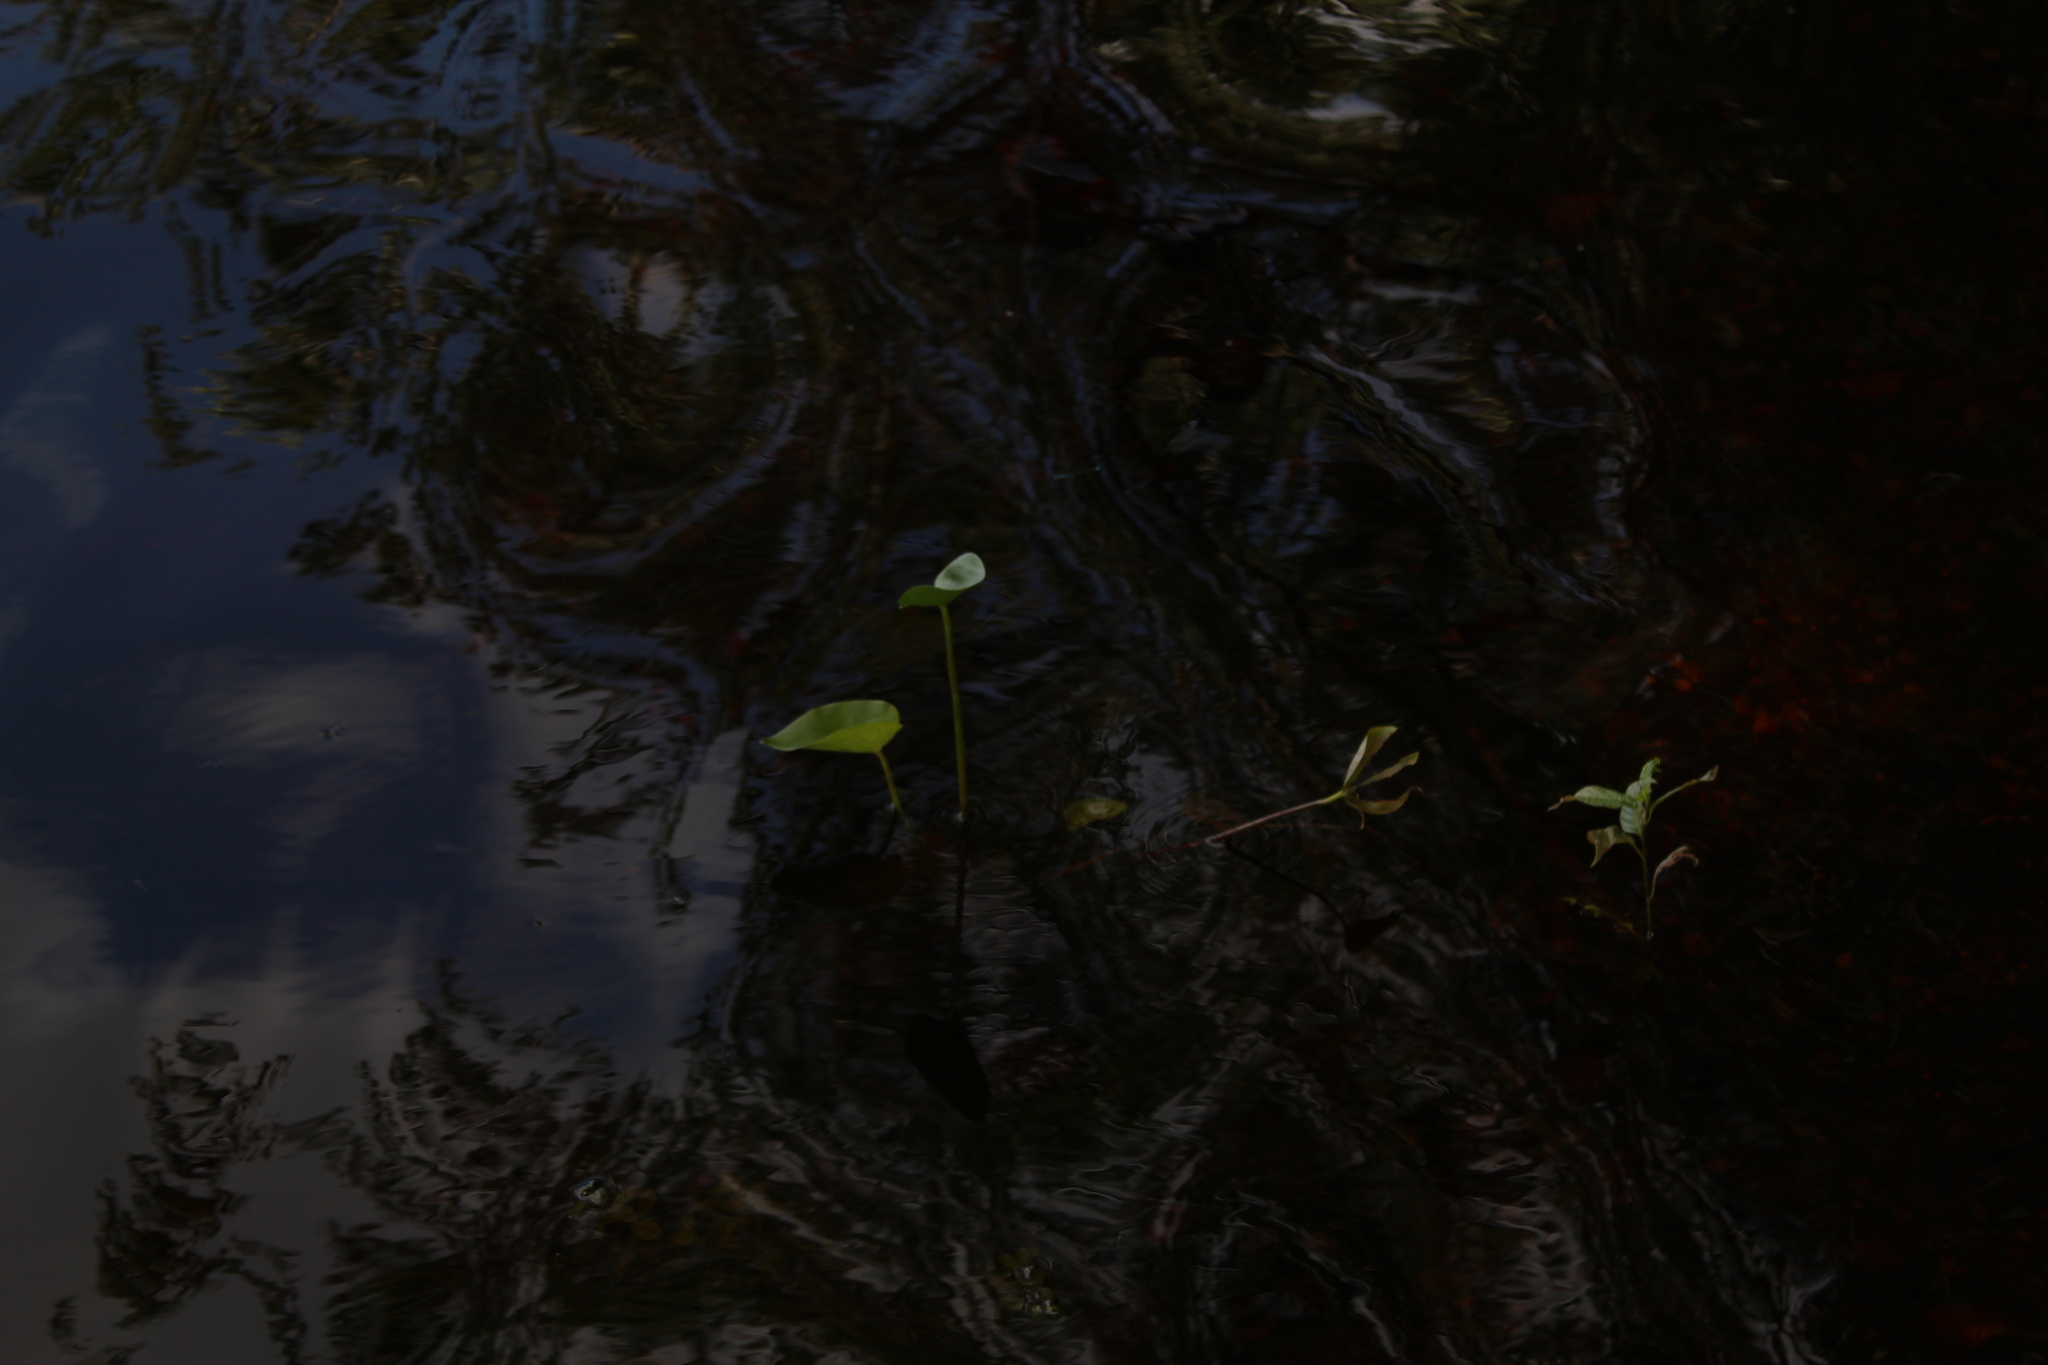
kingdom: Plantae
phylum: Tracheophyta
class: Liliopsida
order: Commelinales
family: Pontederiaceae
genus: Pontederia
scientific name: Pontederia cordata
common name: Pickerelweed
